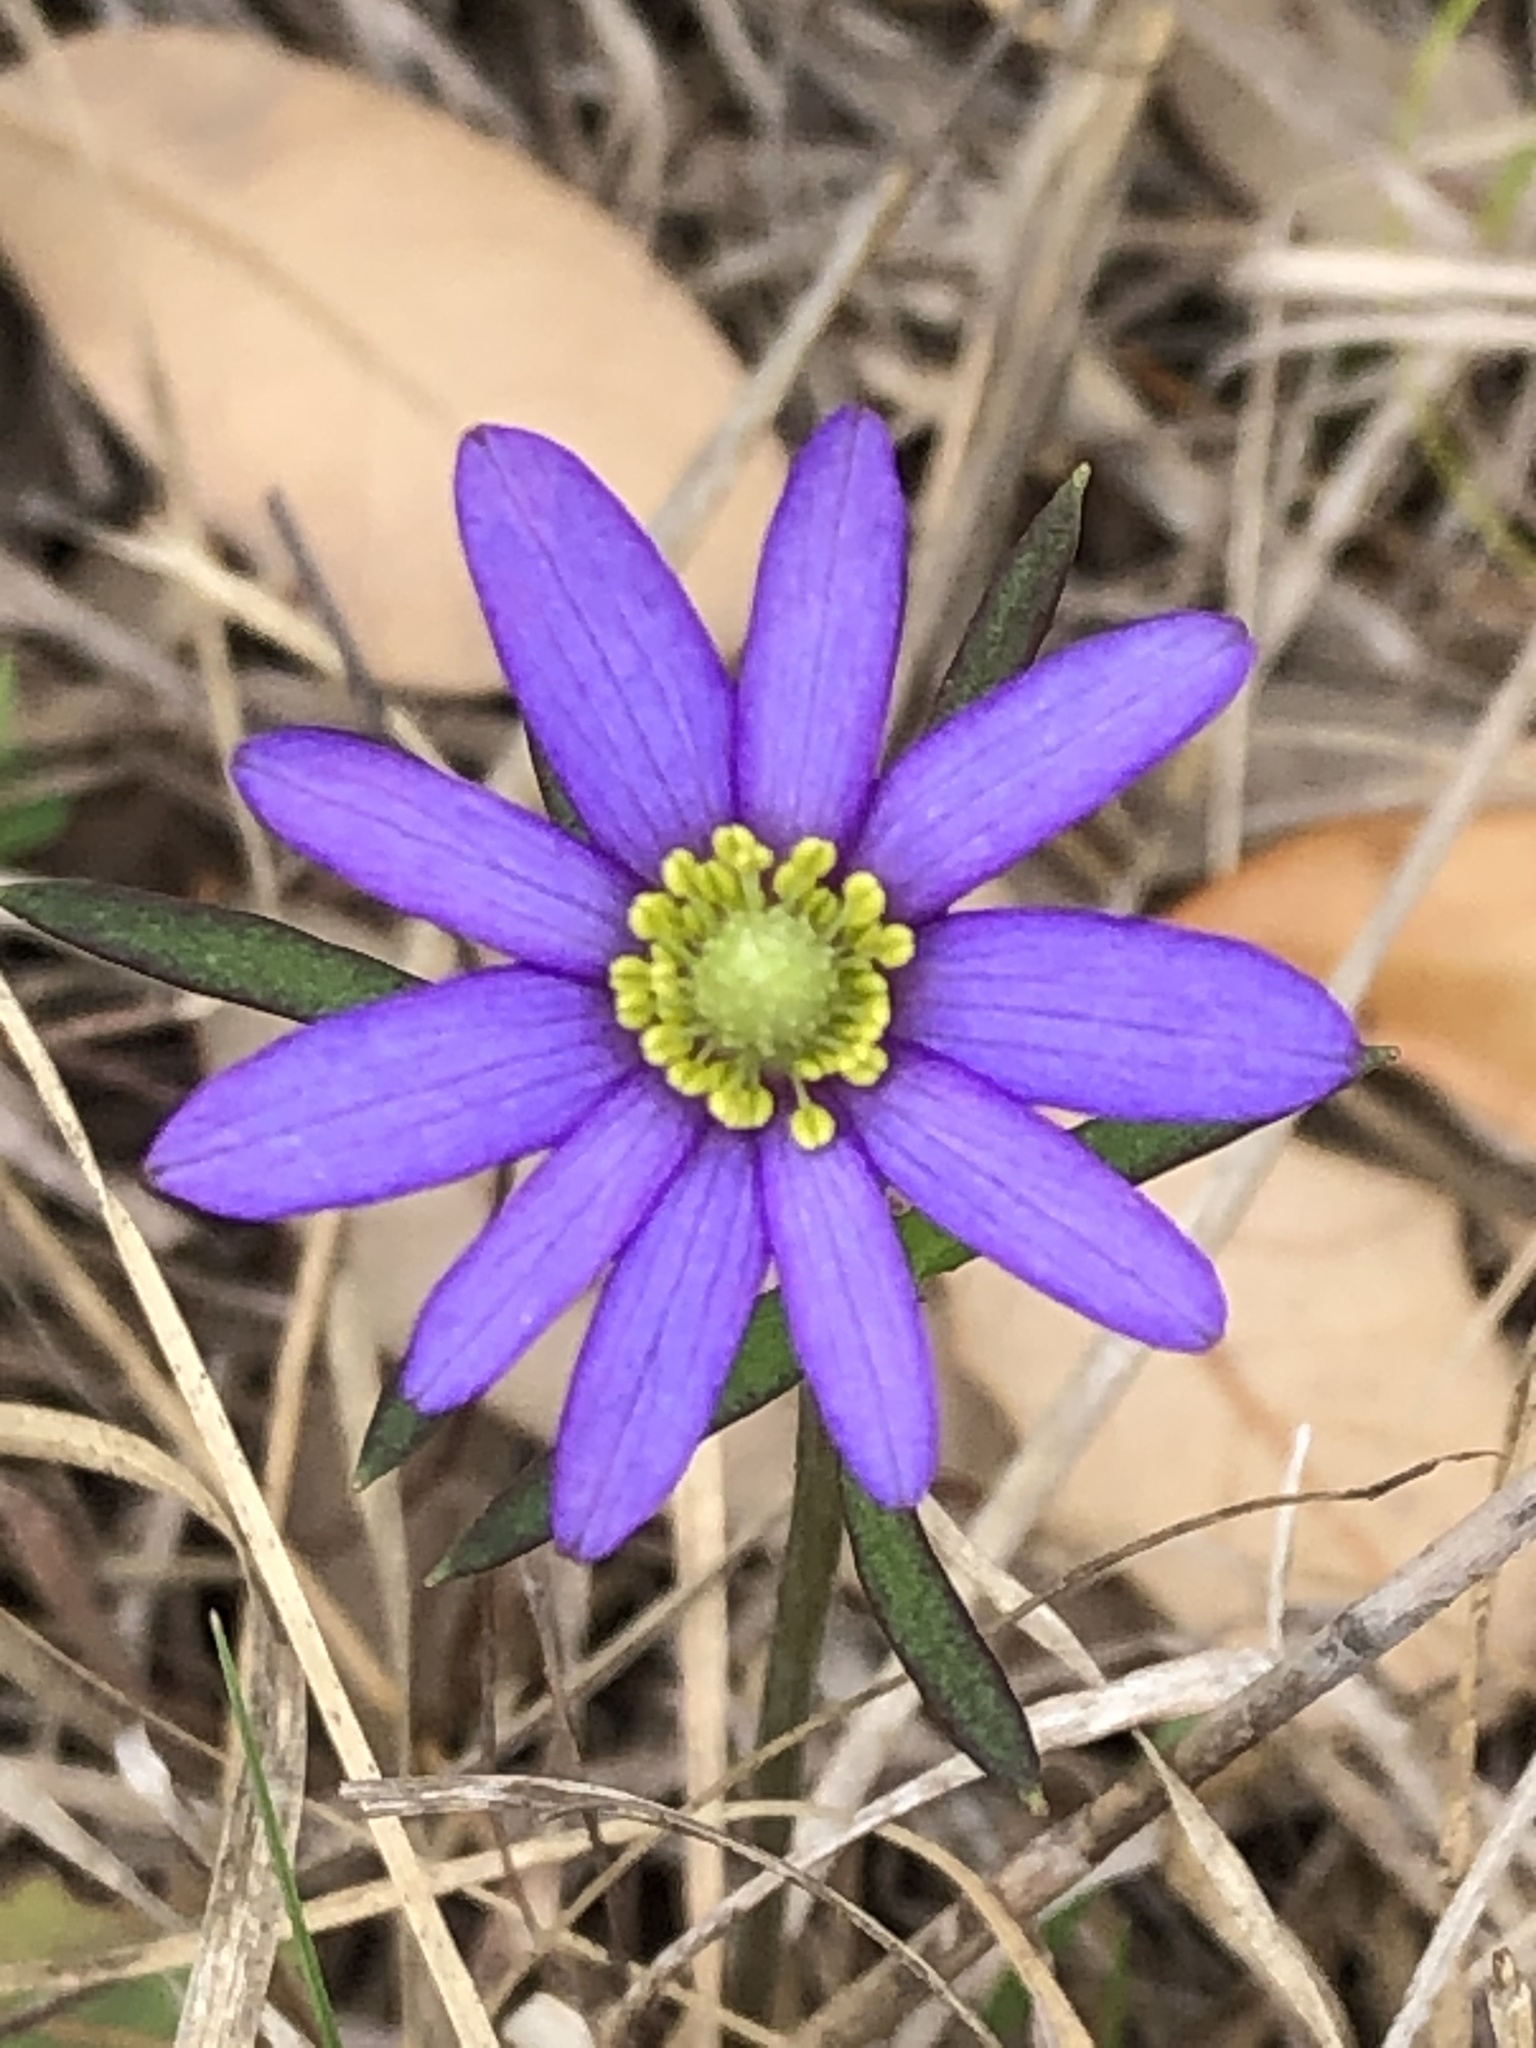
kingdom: Plantae
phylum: Tracheophyta
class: Magnoliopsida
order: Ranunculales
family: Ranunculaceae
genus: Anemone
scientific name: Anemone berlandieri
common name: Ten-petal anemone
